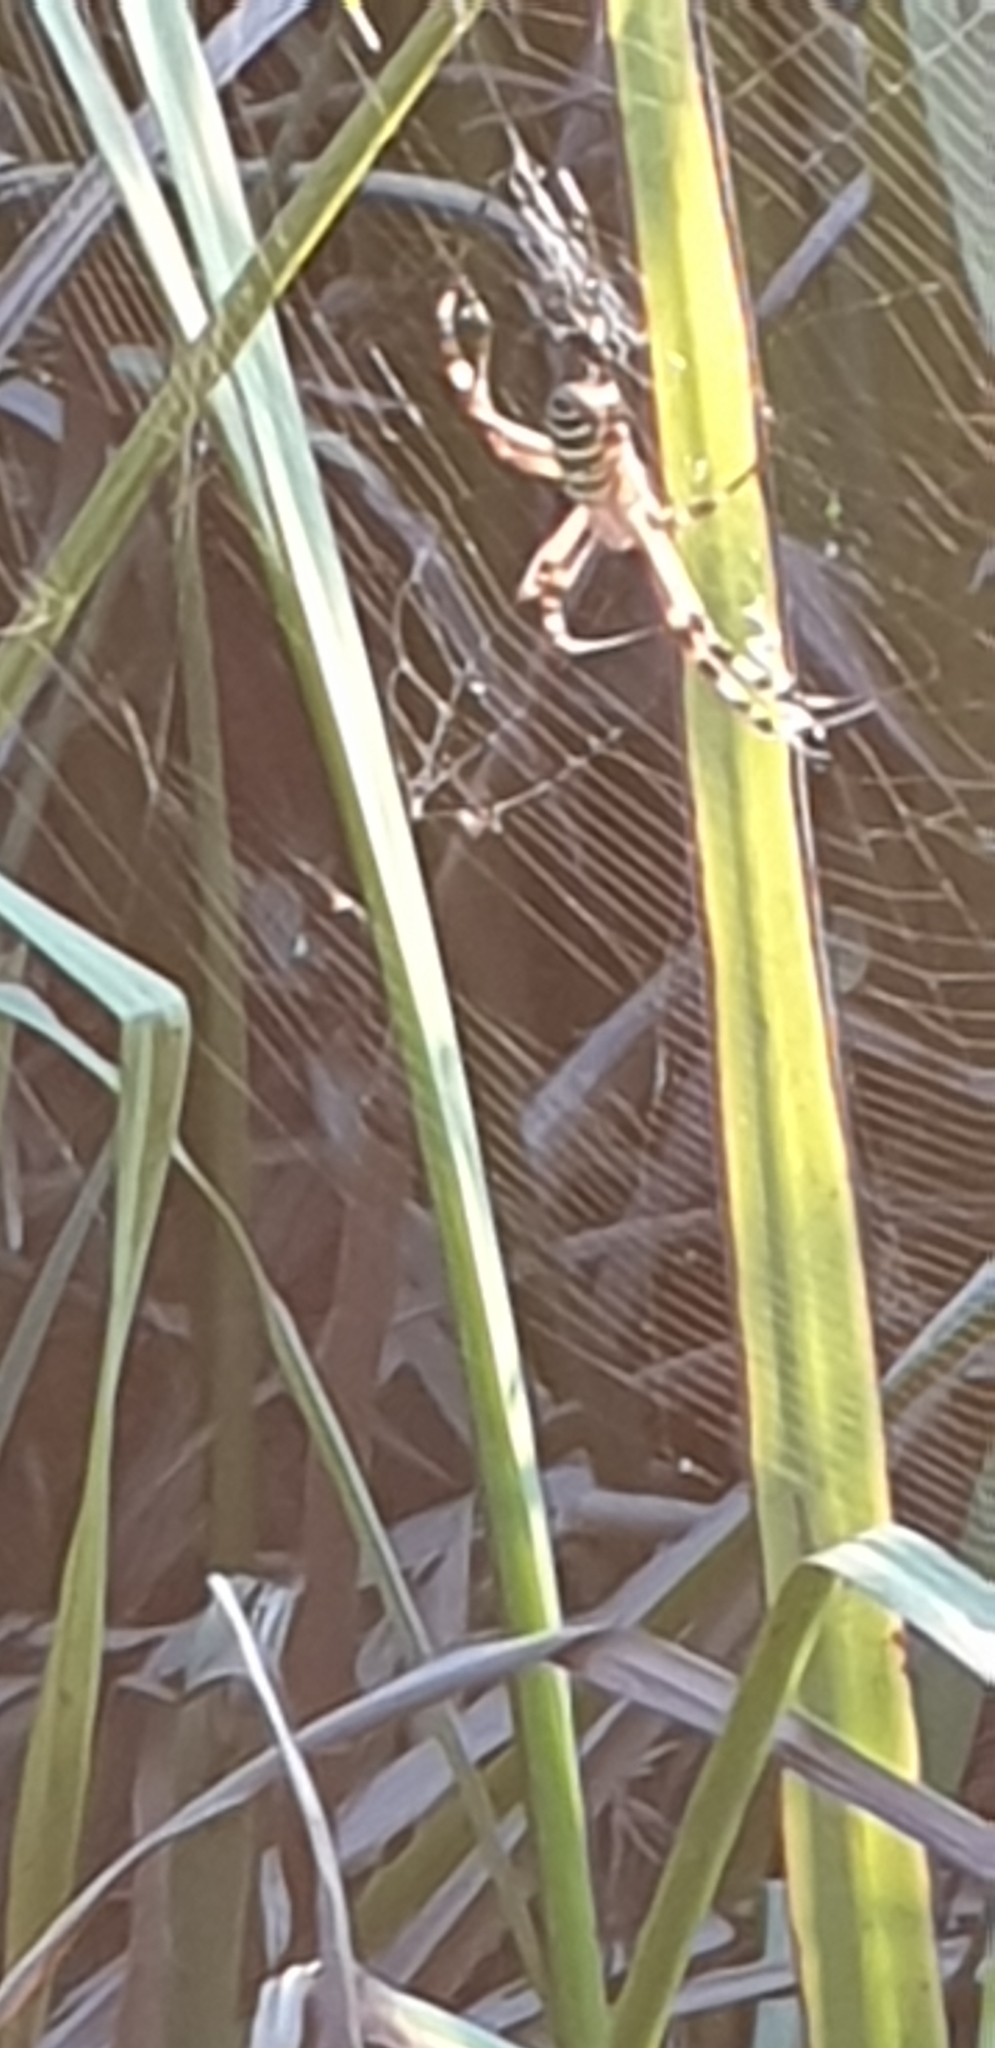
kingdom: Animalia
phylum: Arthropoda
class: Arachnida
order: Araneae
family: Araneidae
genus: Argiope
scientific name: Argiope bruennichi
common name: Wasp spider
